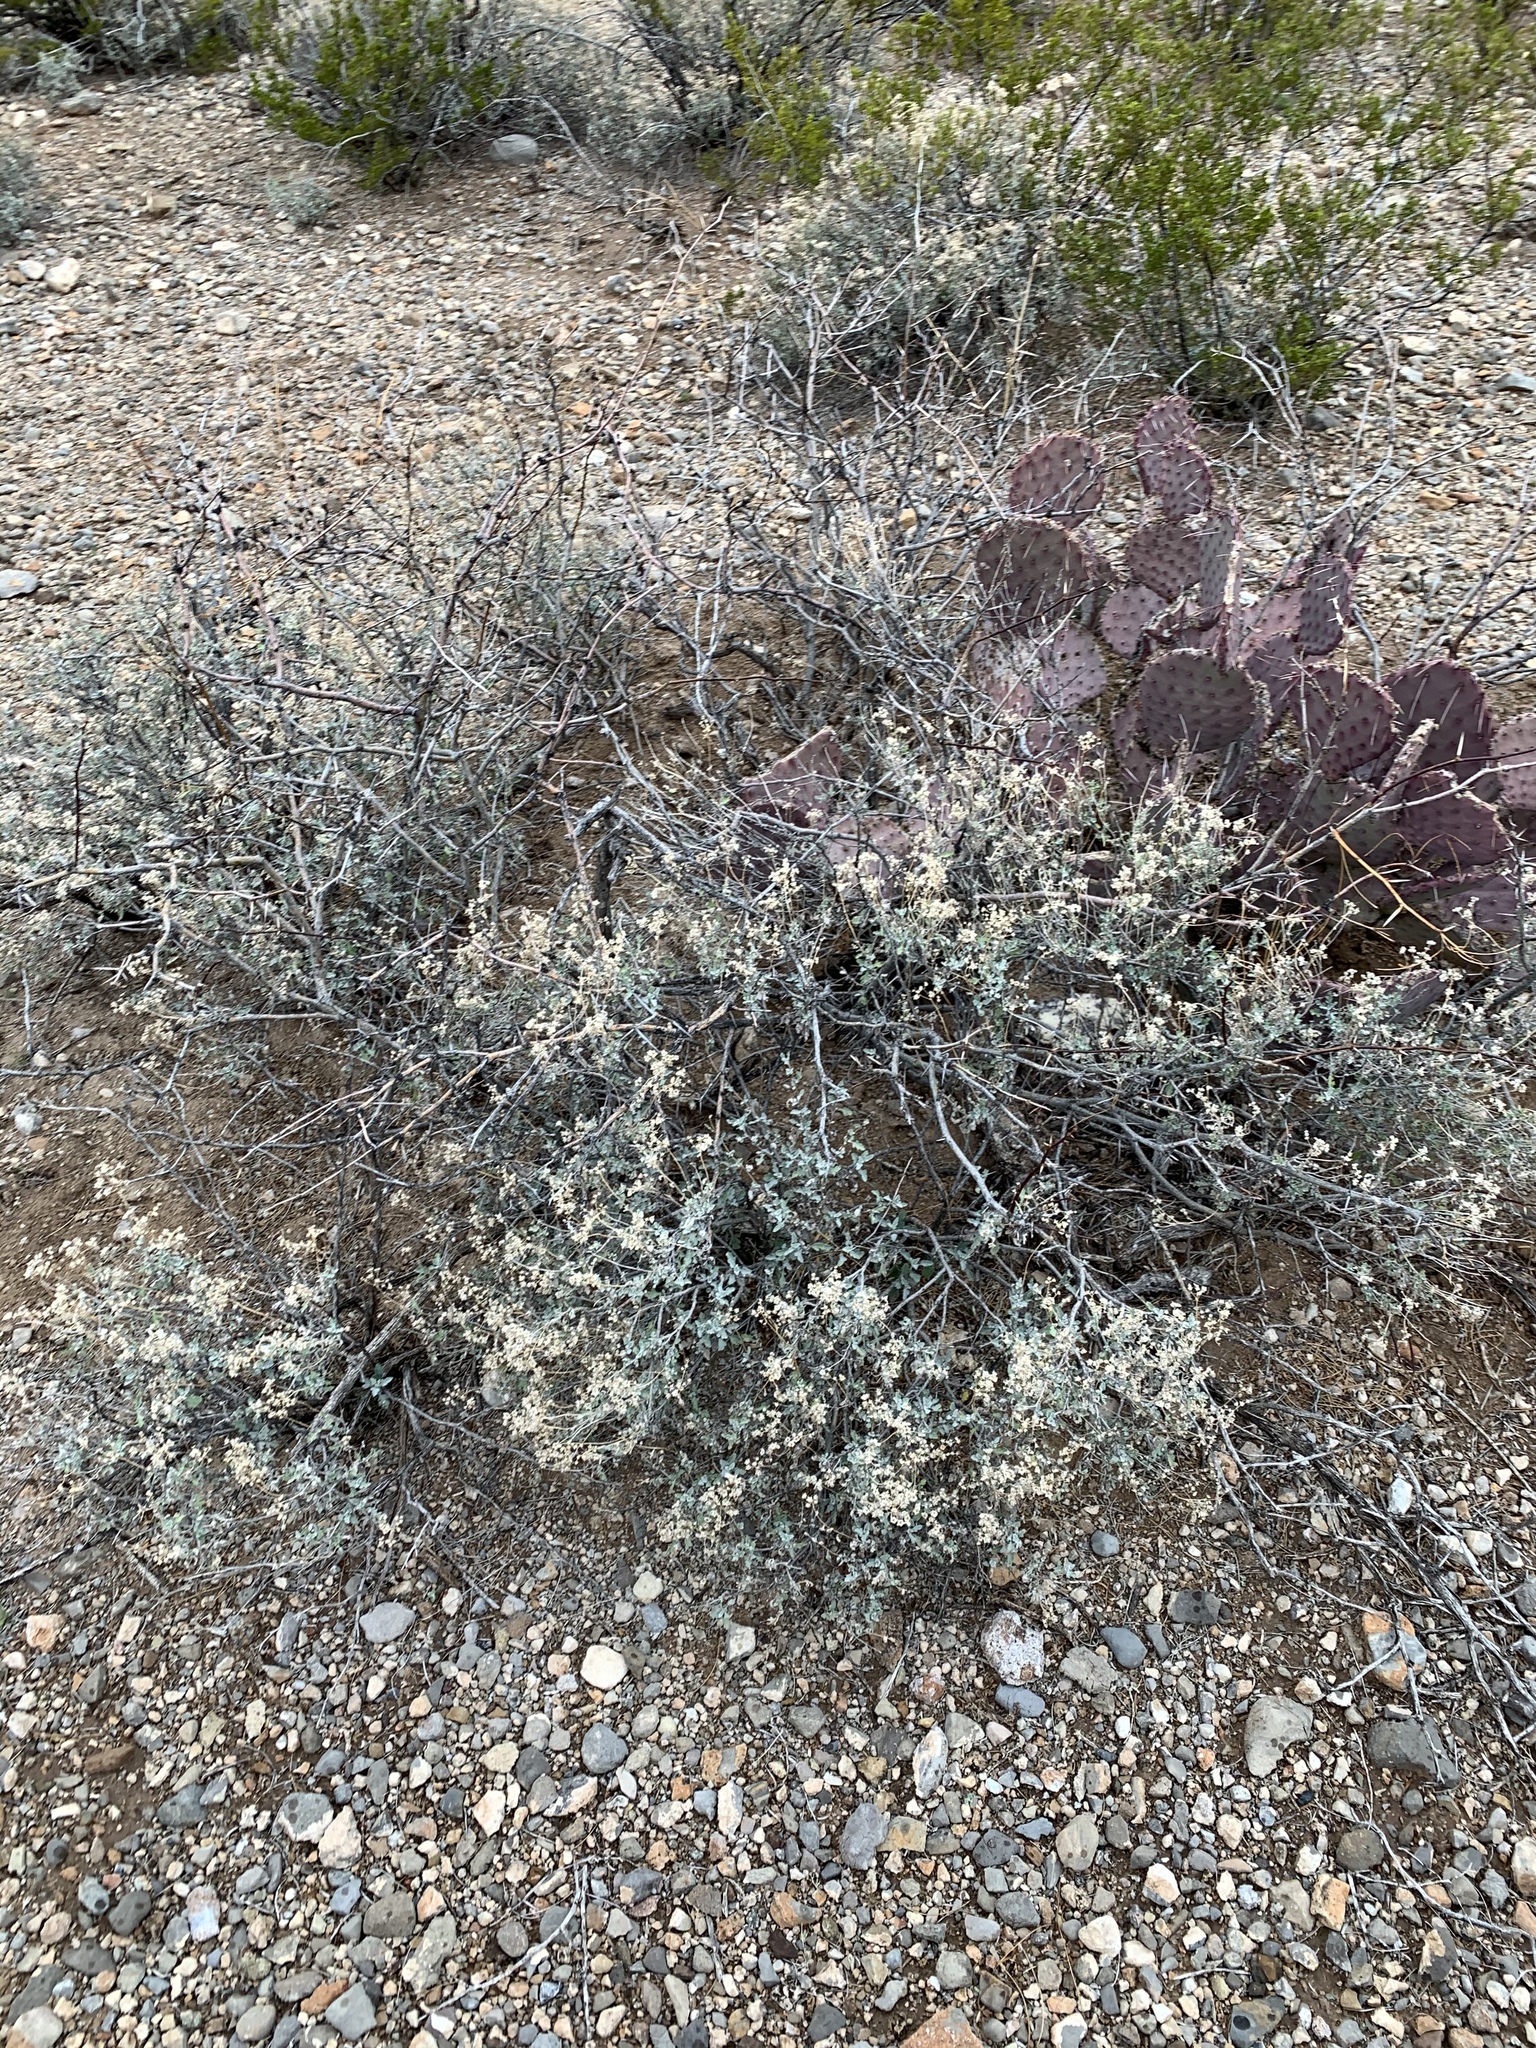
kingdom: Plantae
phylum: Tracheophyta
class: Magnoliopsida
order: Asterales
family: Asteraceae
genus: Parthenium
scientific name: Parthenium incanum
